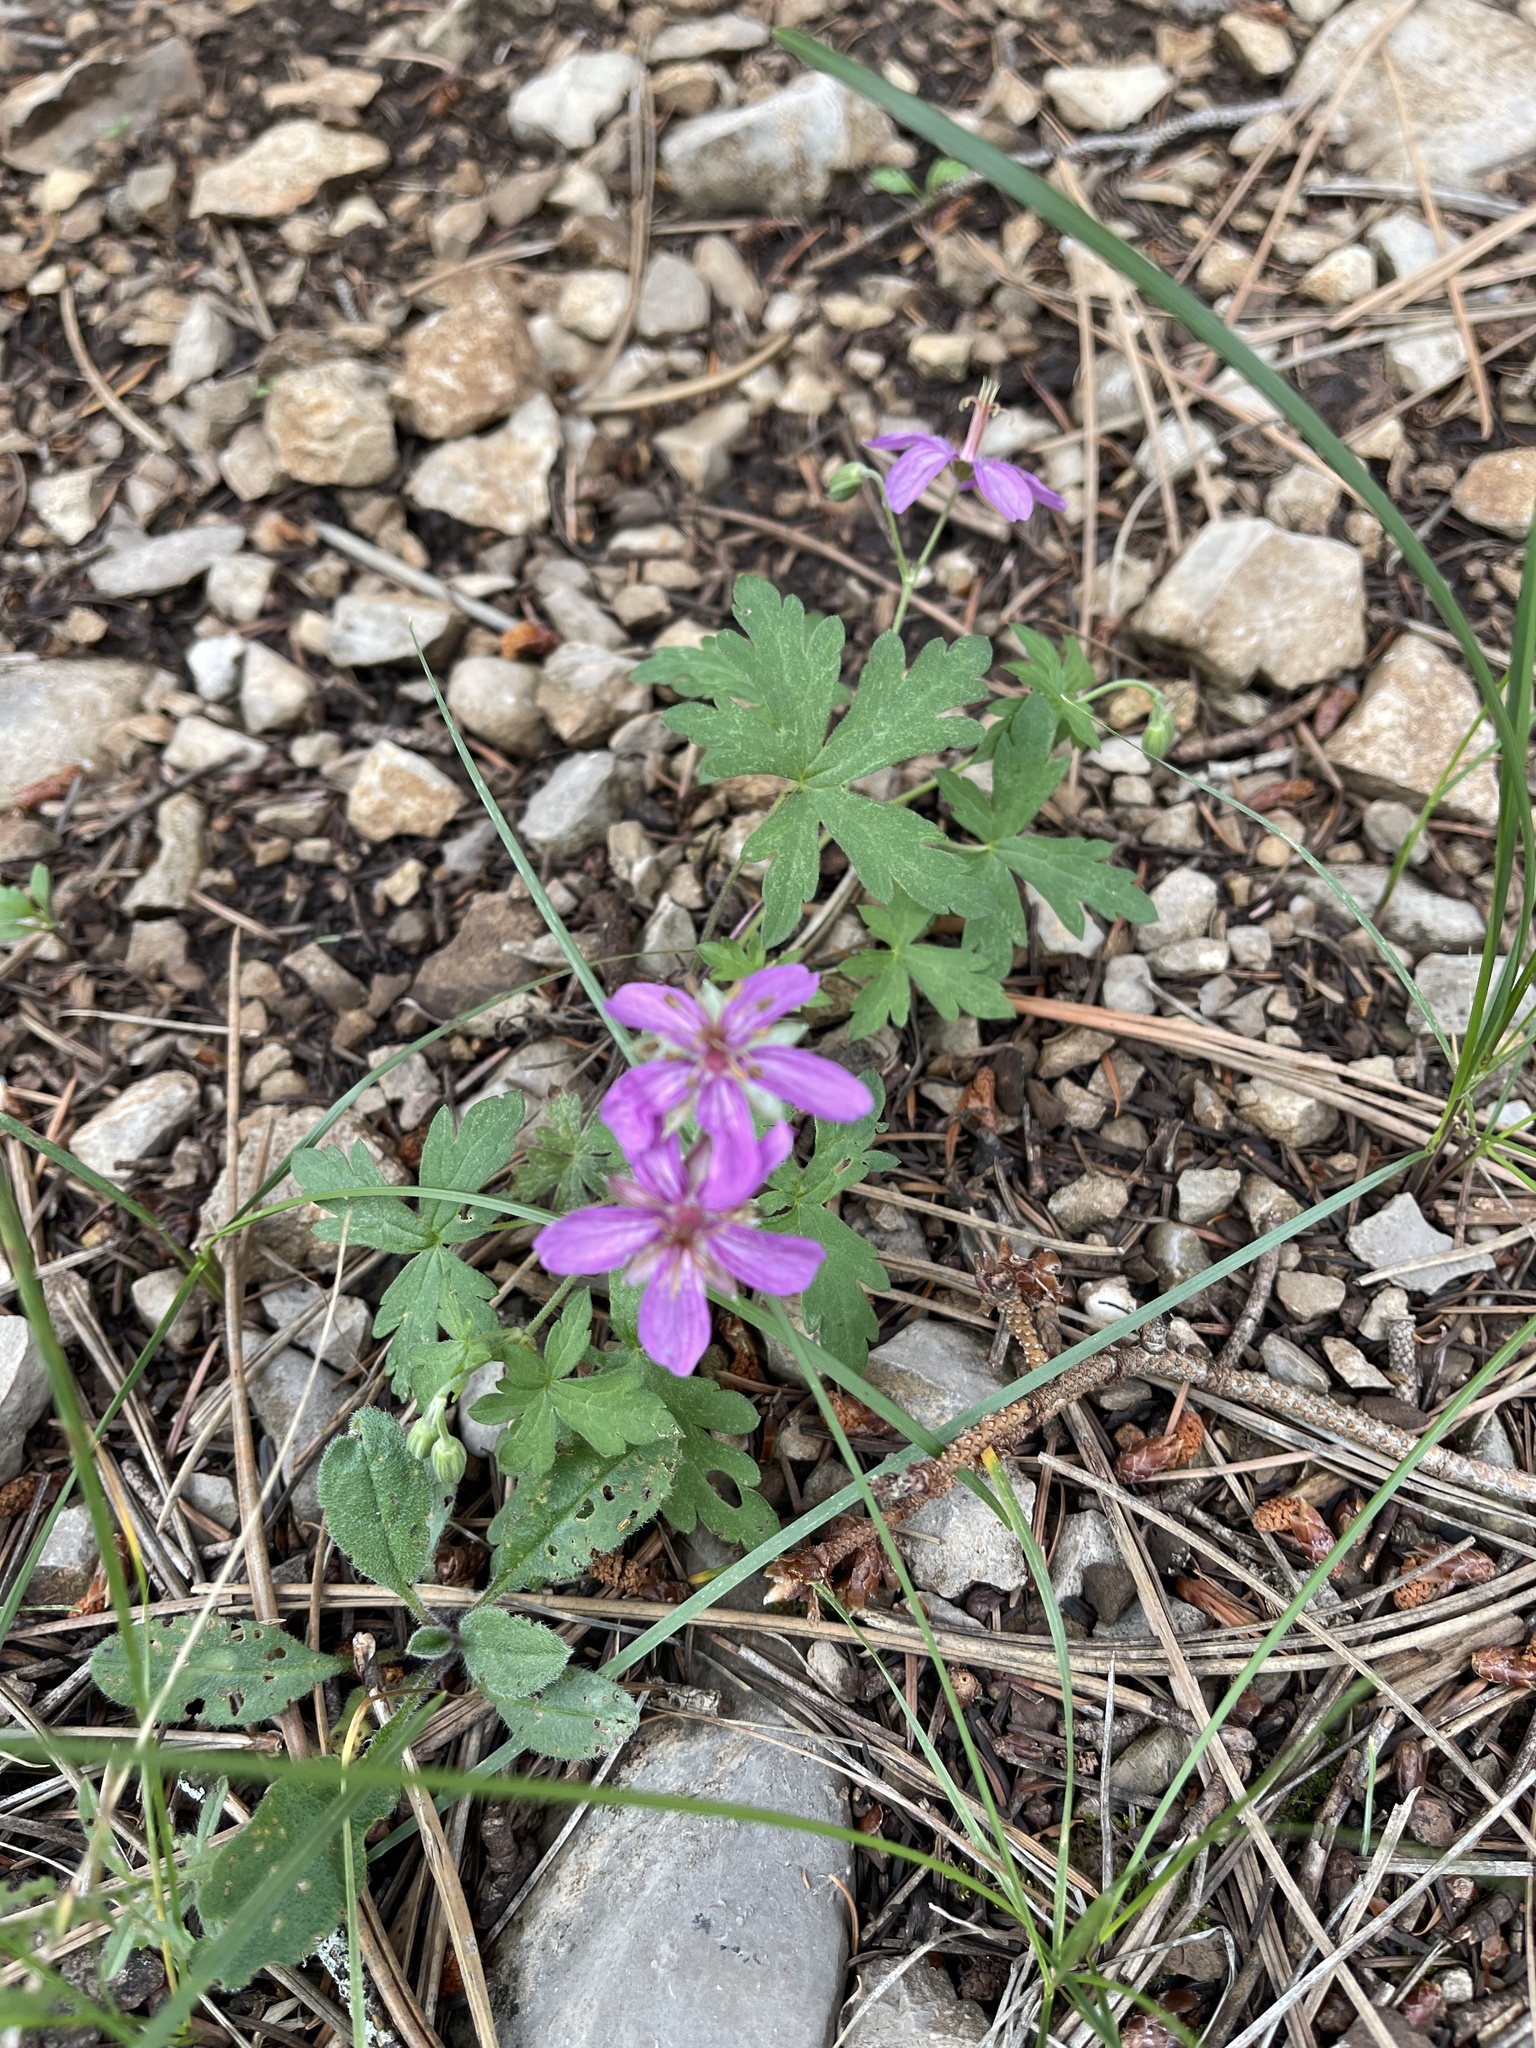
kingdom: Plantae
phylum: Tracheophyta
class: Magnoliopsida
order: Geraniales
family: Geraniaceae
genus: Geranium
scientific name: Geranium caespitosum
